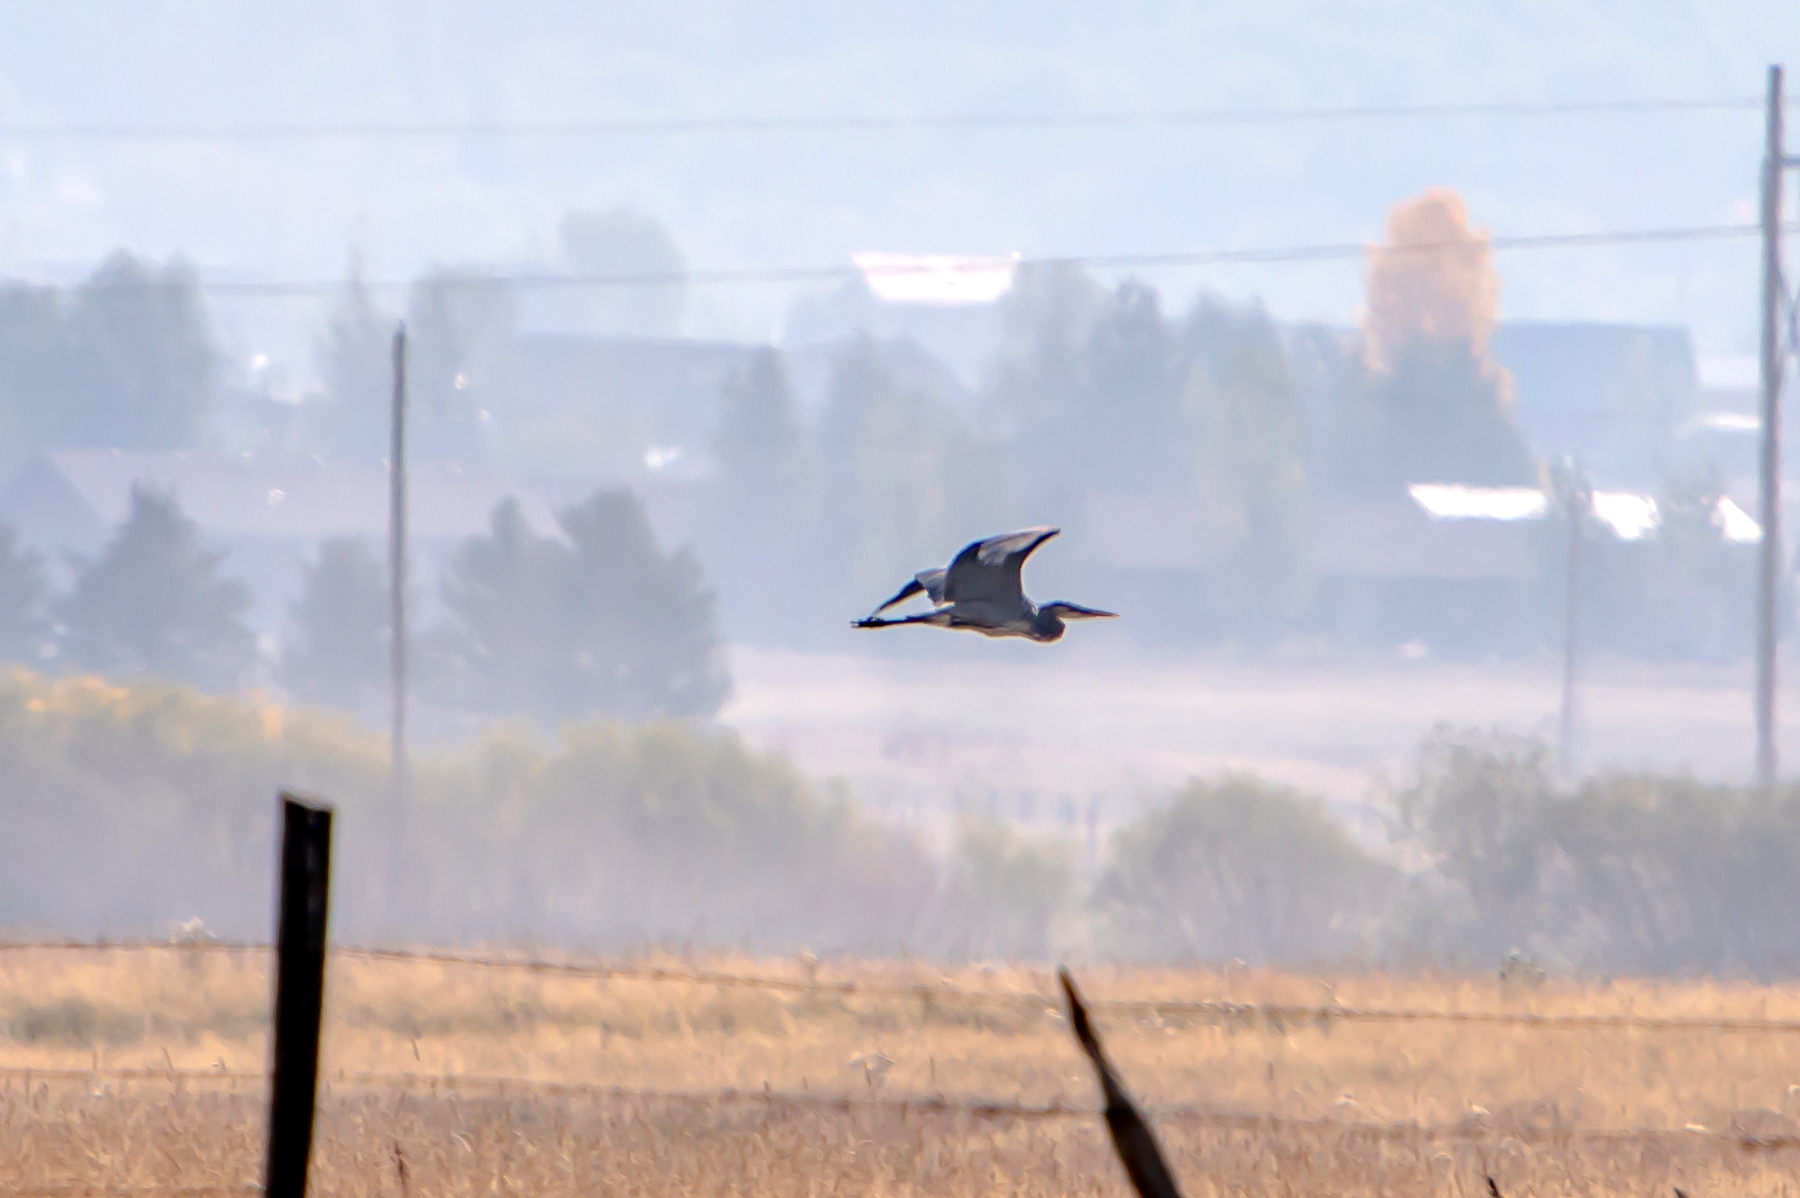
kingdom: Animalia
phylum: Chordata
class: Aves
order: Pelecaniformes
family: Ardeidae
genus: Ardea
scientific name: Ardea herodias
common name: Great blue heron
